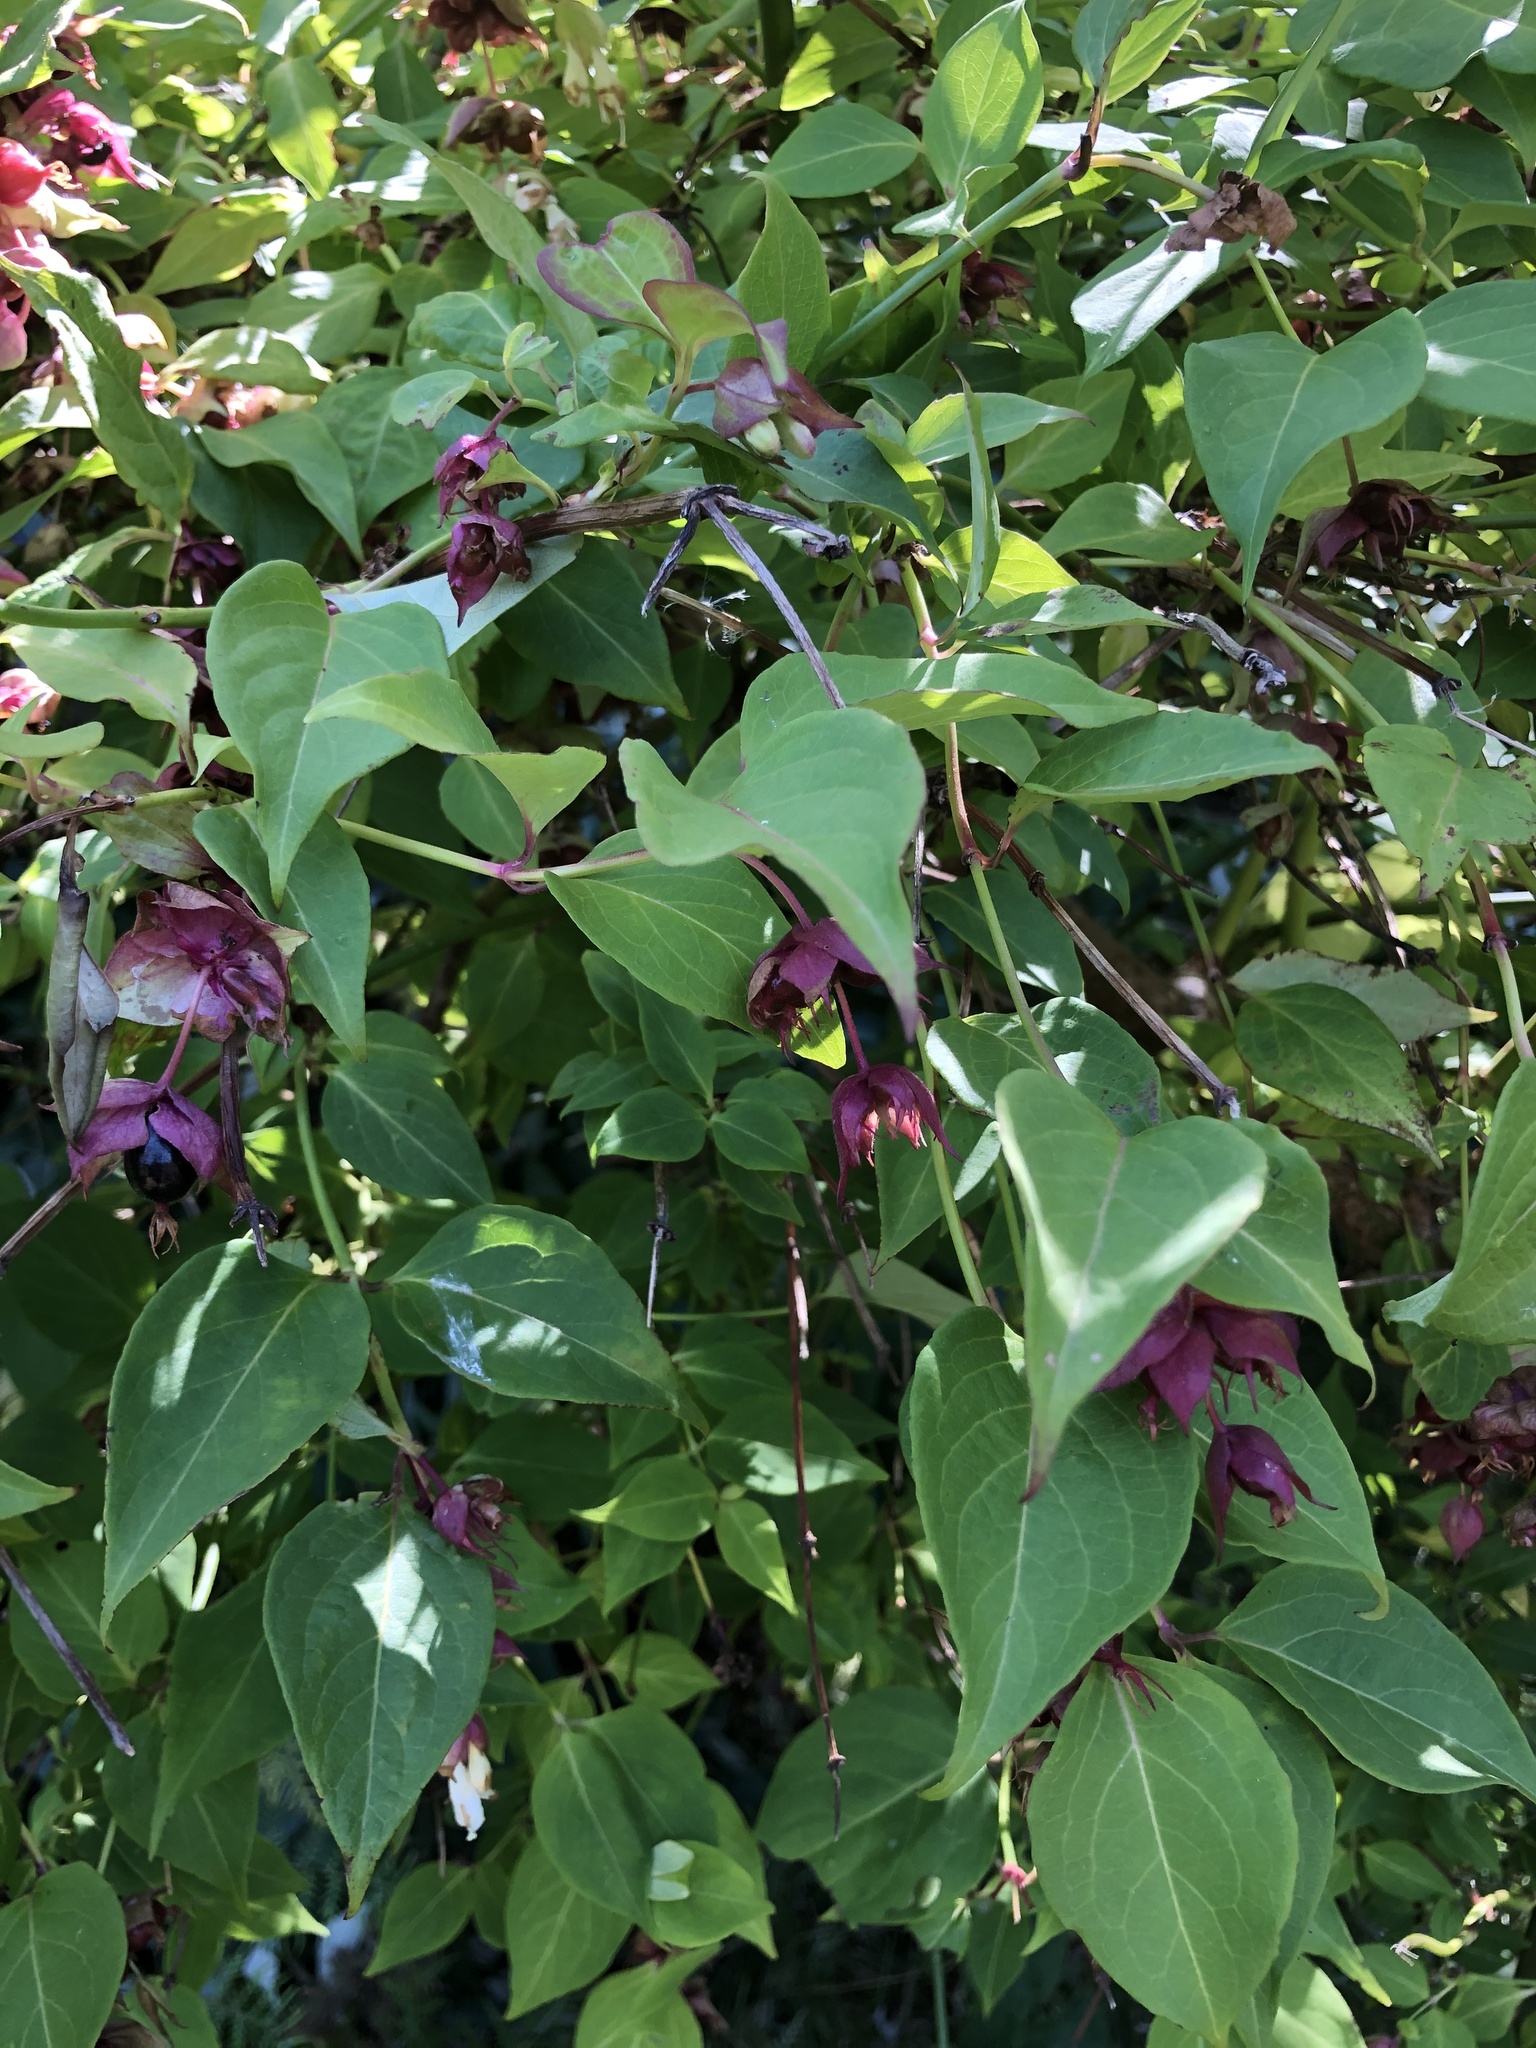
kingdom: Plantae
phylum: Tracheophyta
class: Magnoliopsida
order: Dipsacales
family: Caprifoliaceae
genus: Leycesteria
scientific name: Leycesteria formosa
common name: Himalayan honeysuckle
